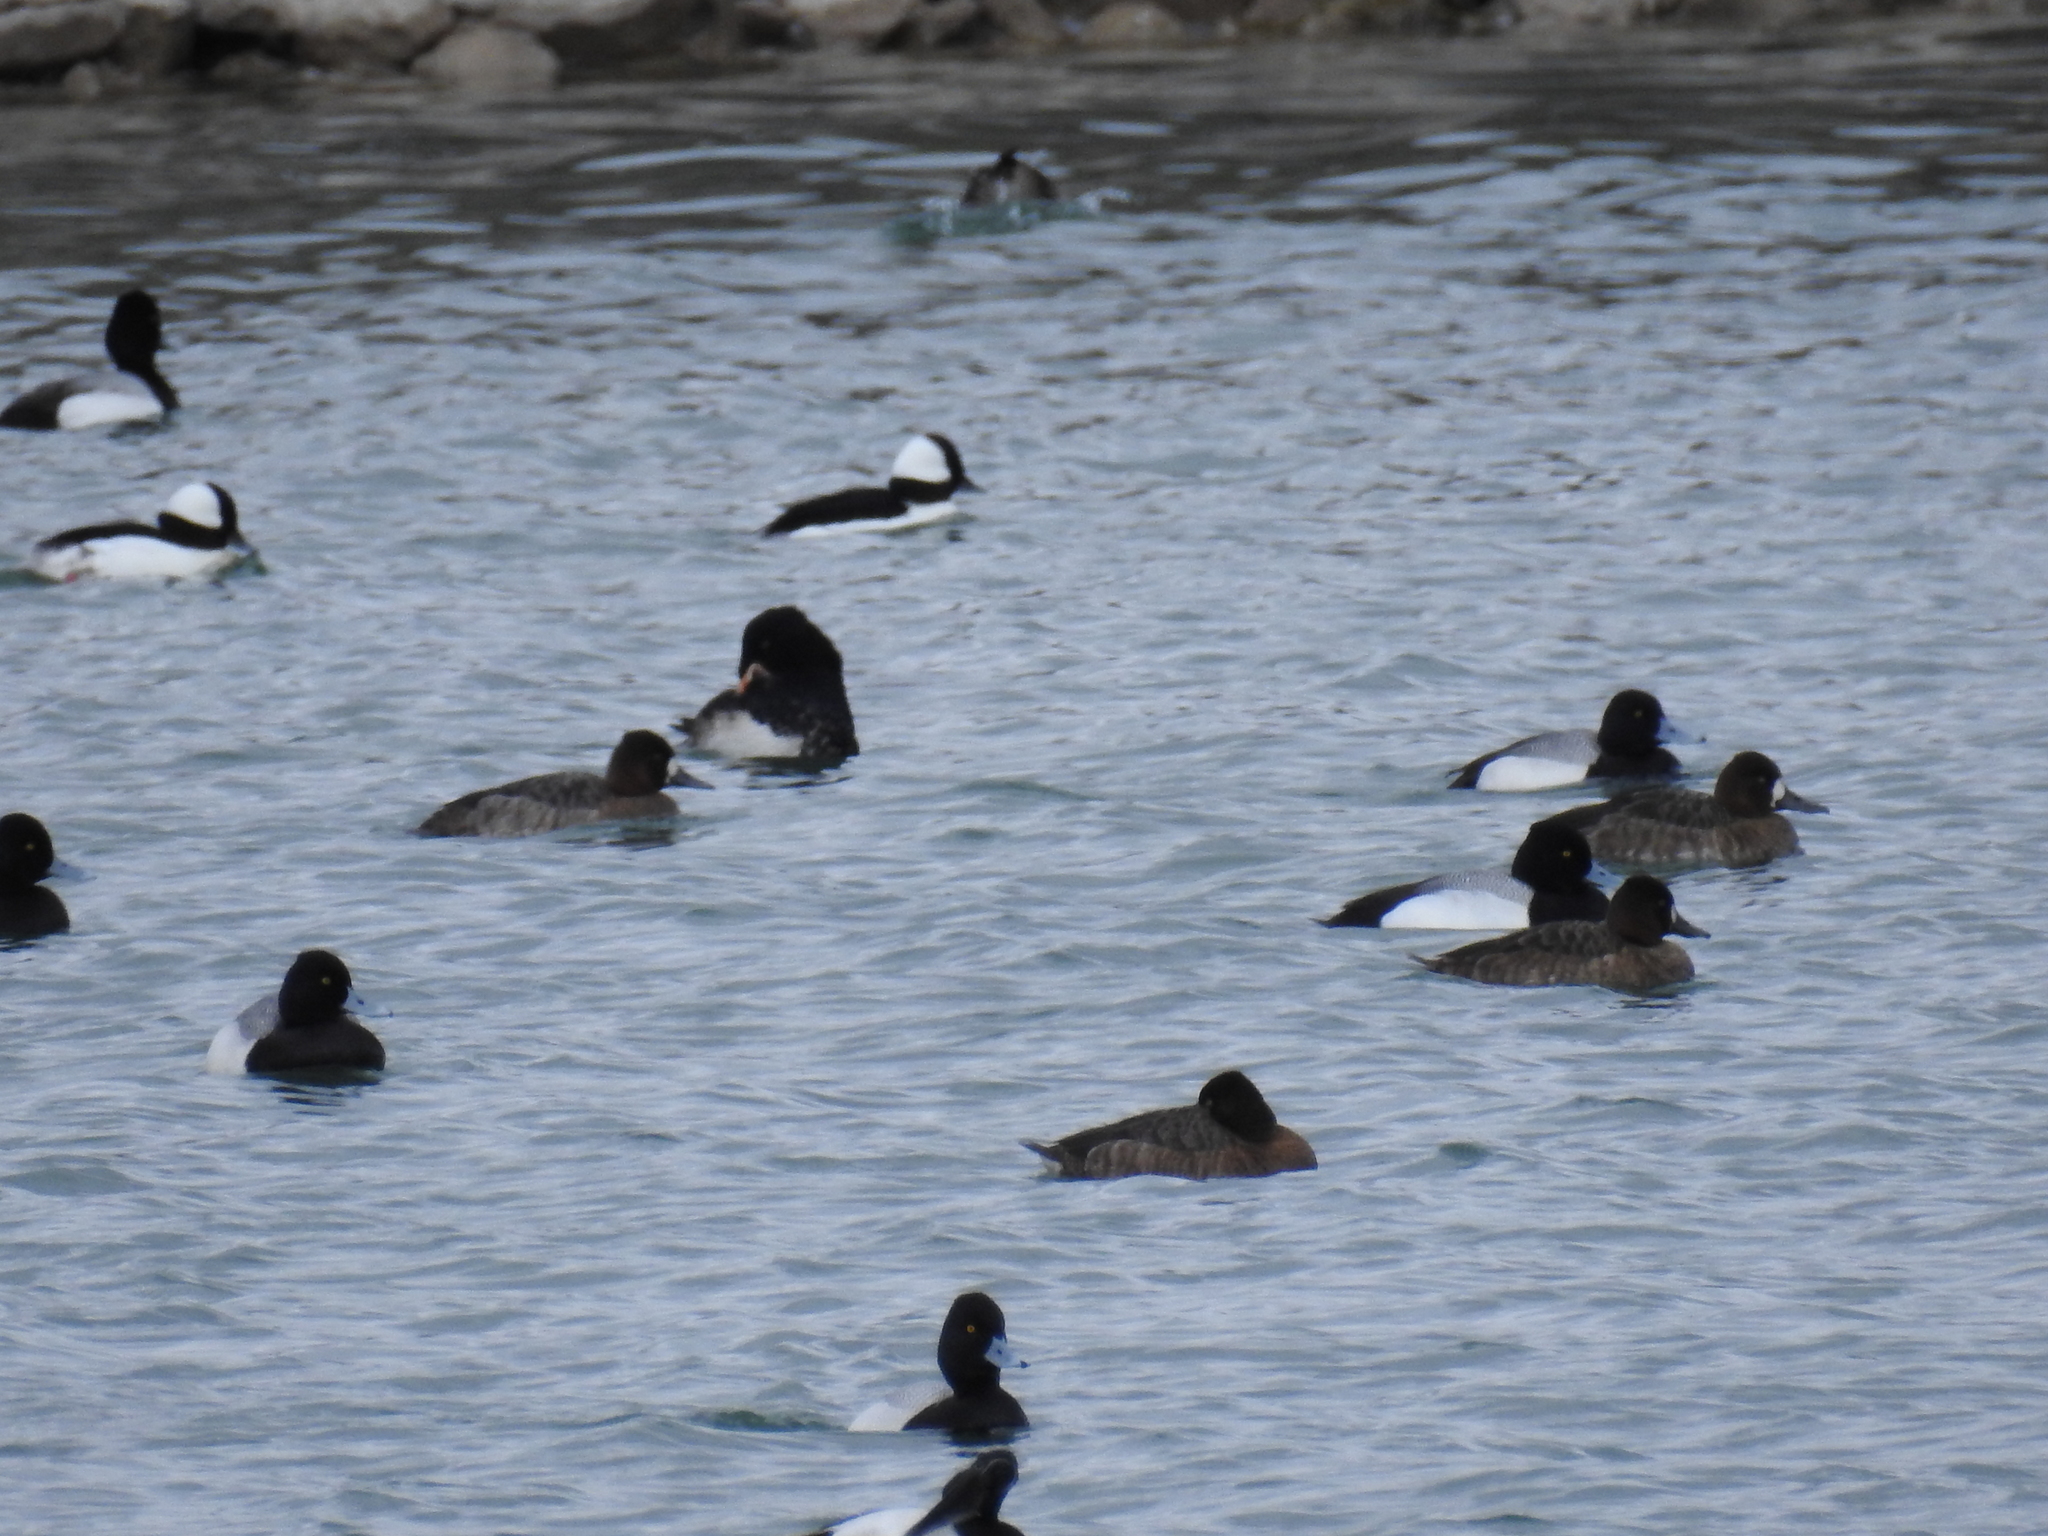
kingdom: Animalia
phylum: Chordata
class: Aves
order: Anseriformes
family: Anatidae
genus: Aythya
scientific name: Aythya affinis
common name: Lesser scaup
